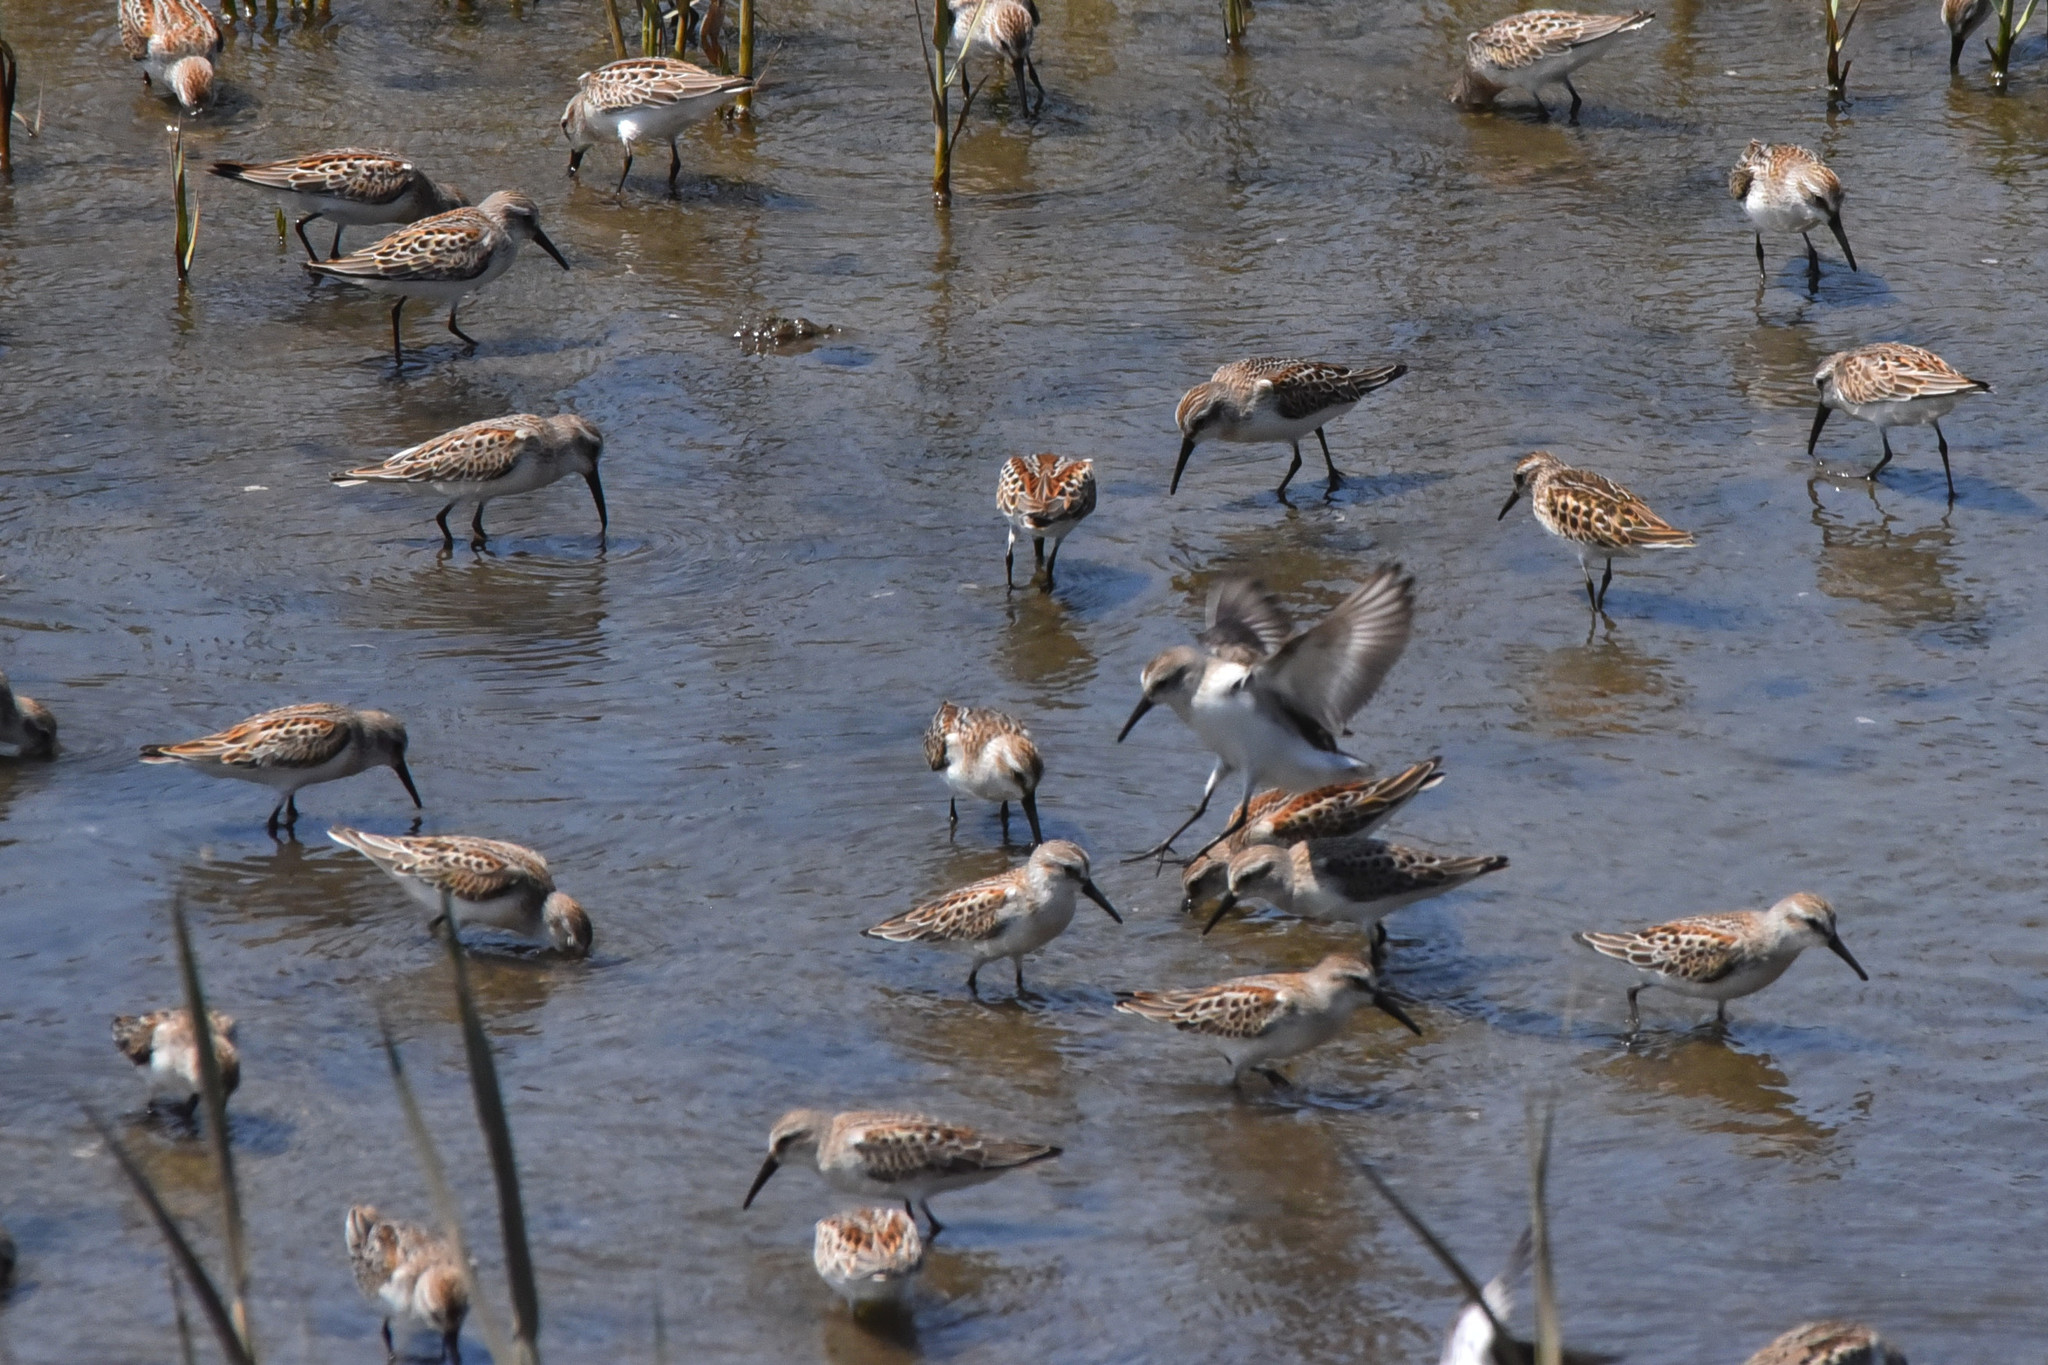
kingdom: Animalia
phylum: Chordata
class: Aves
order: Charadriiformes
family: Scolopacidae
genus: Calidris
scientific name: Calidris mauri
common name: Western sandpiper
